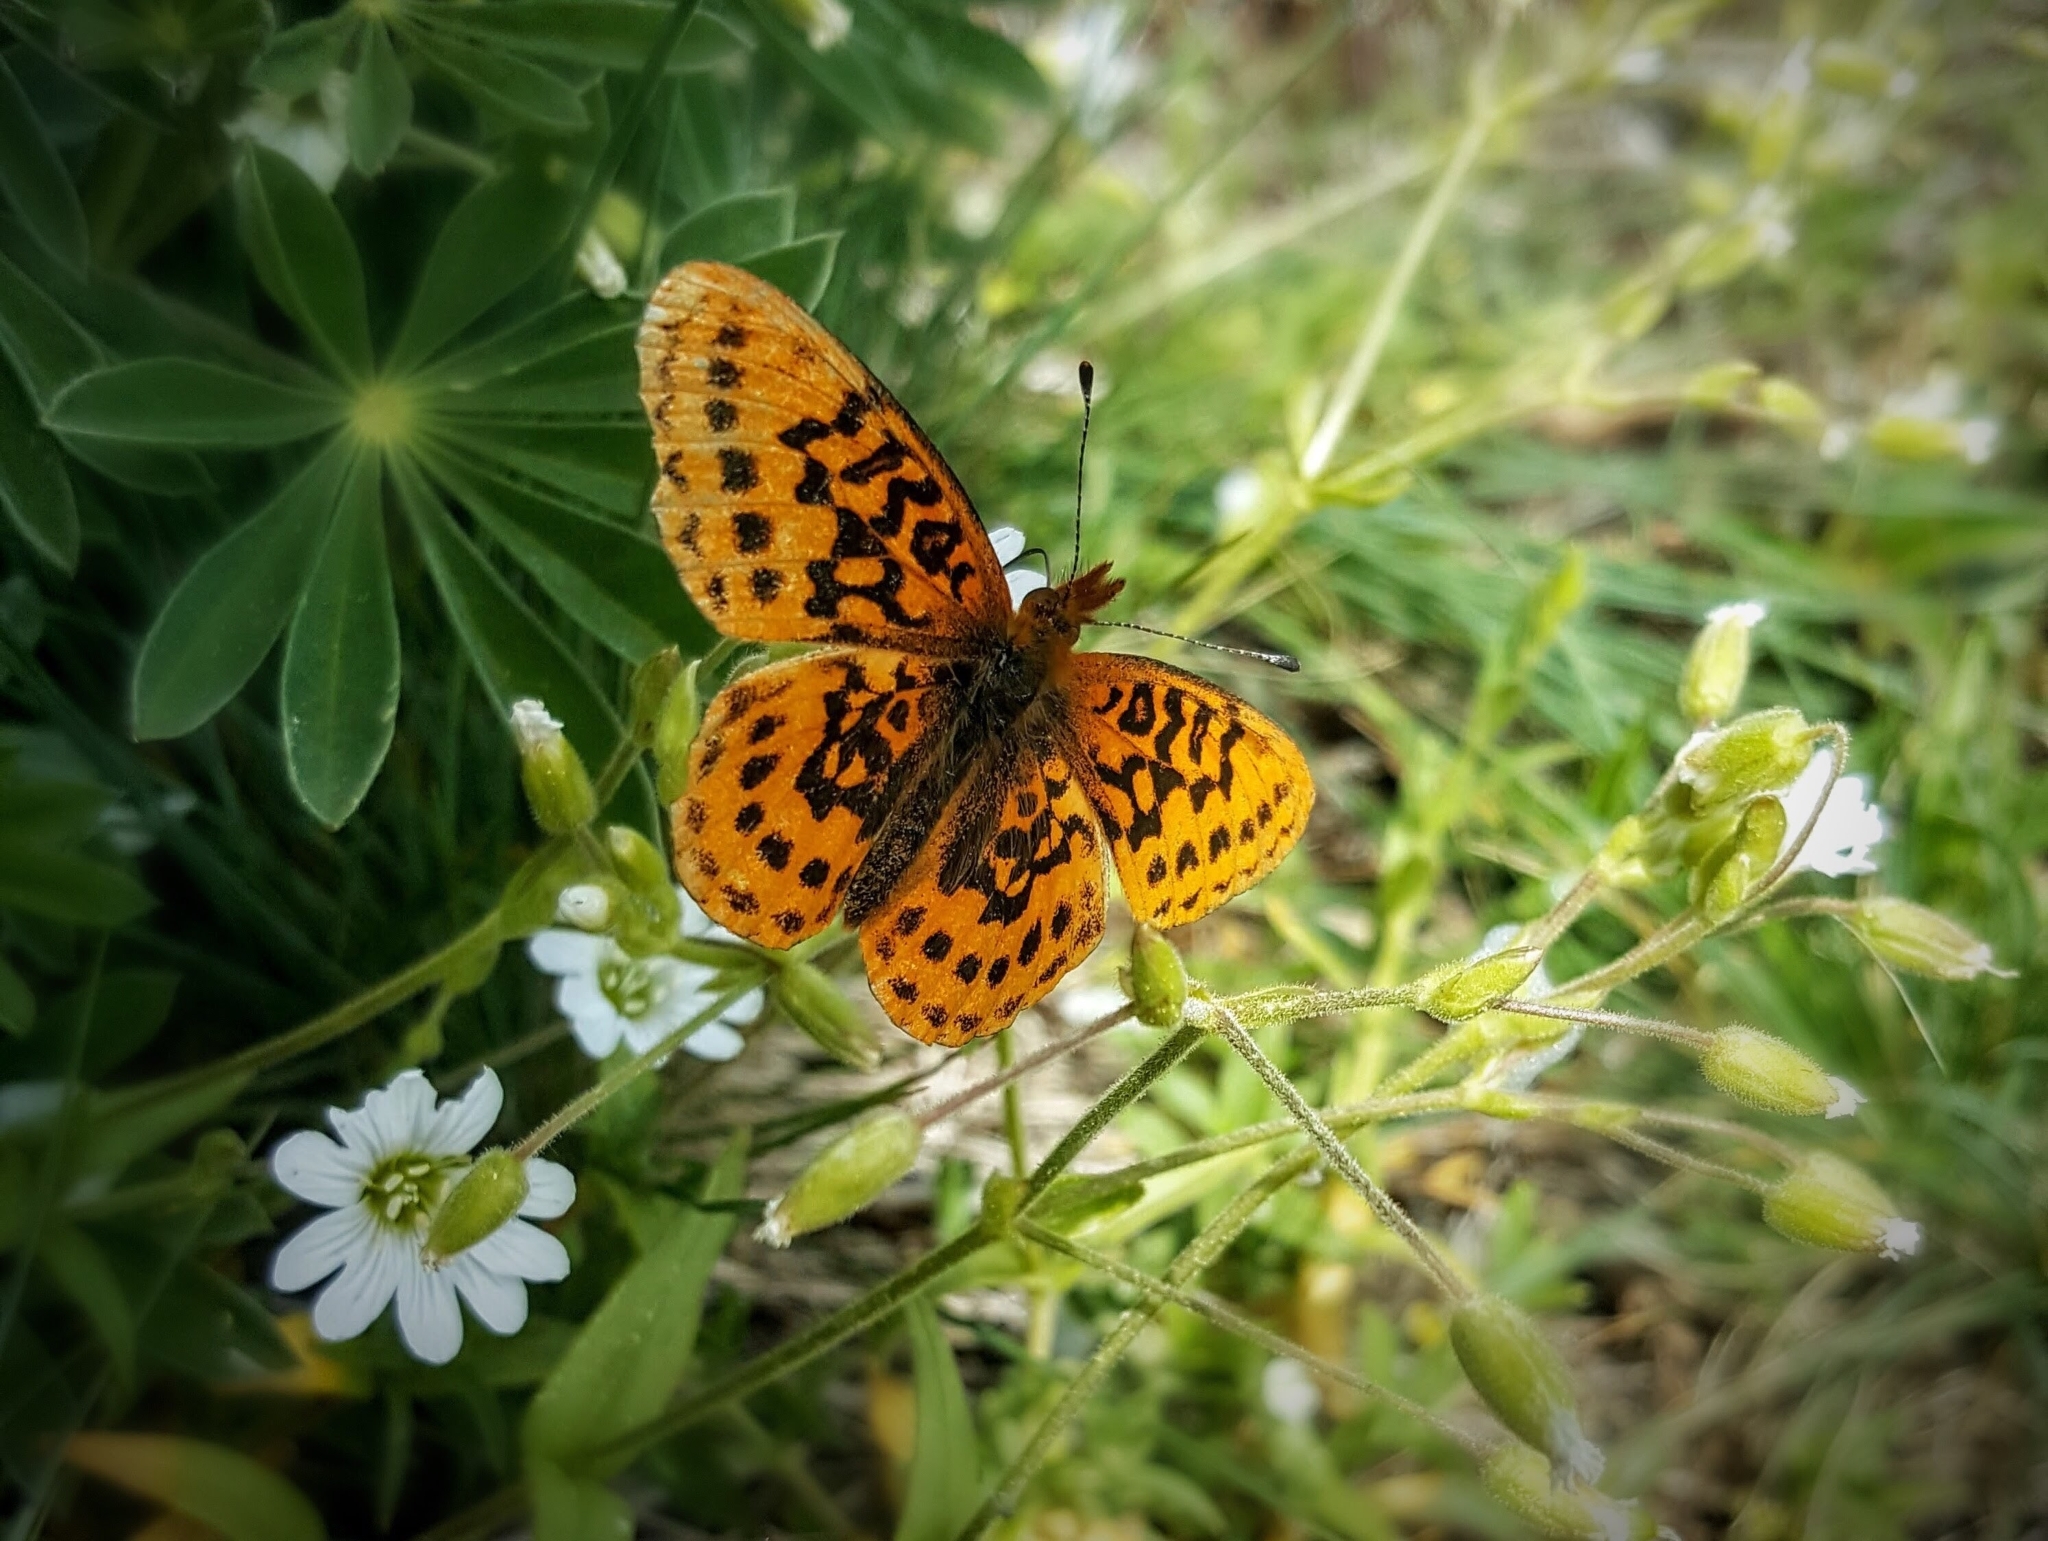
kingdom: Animalia
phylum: Arthropoda
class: Insecta
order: Lepidoptera
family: Nymphalidae
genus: Boloria
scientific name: Boloria epithore
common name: Pacific fritillary
